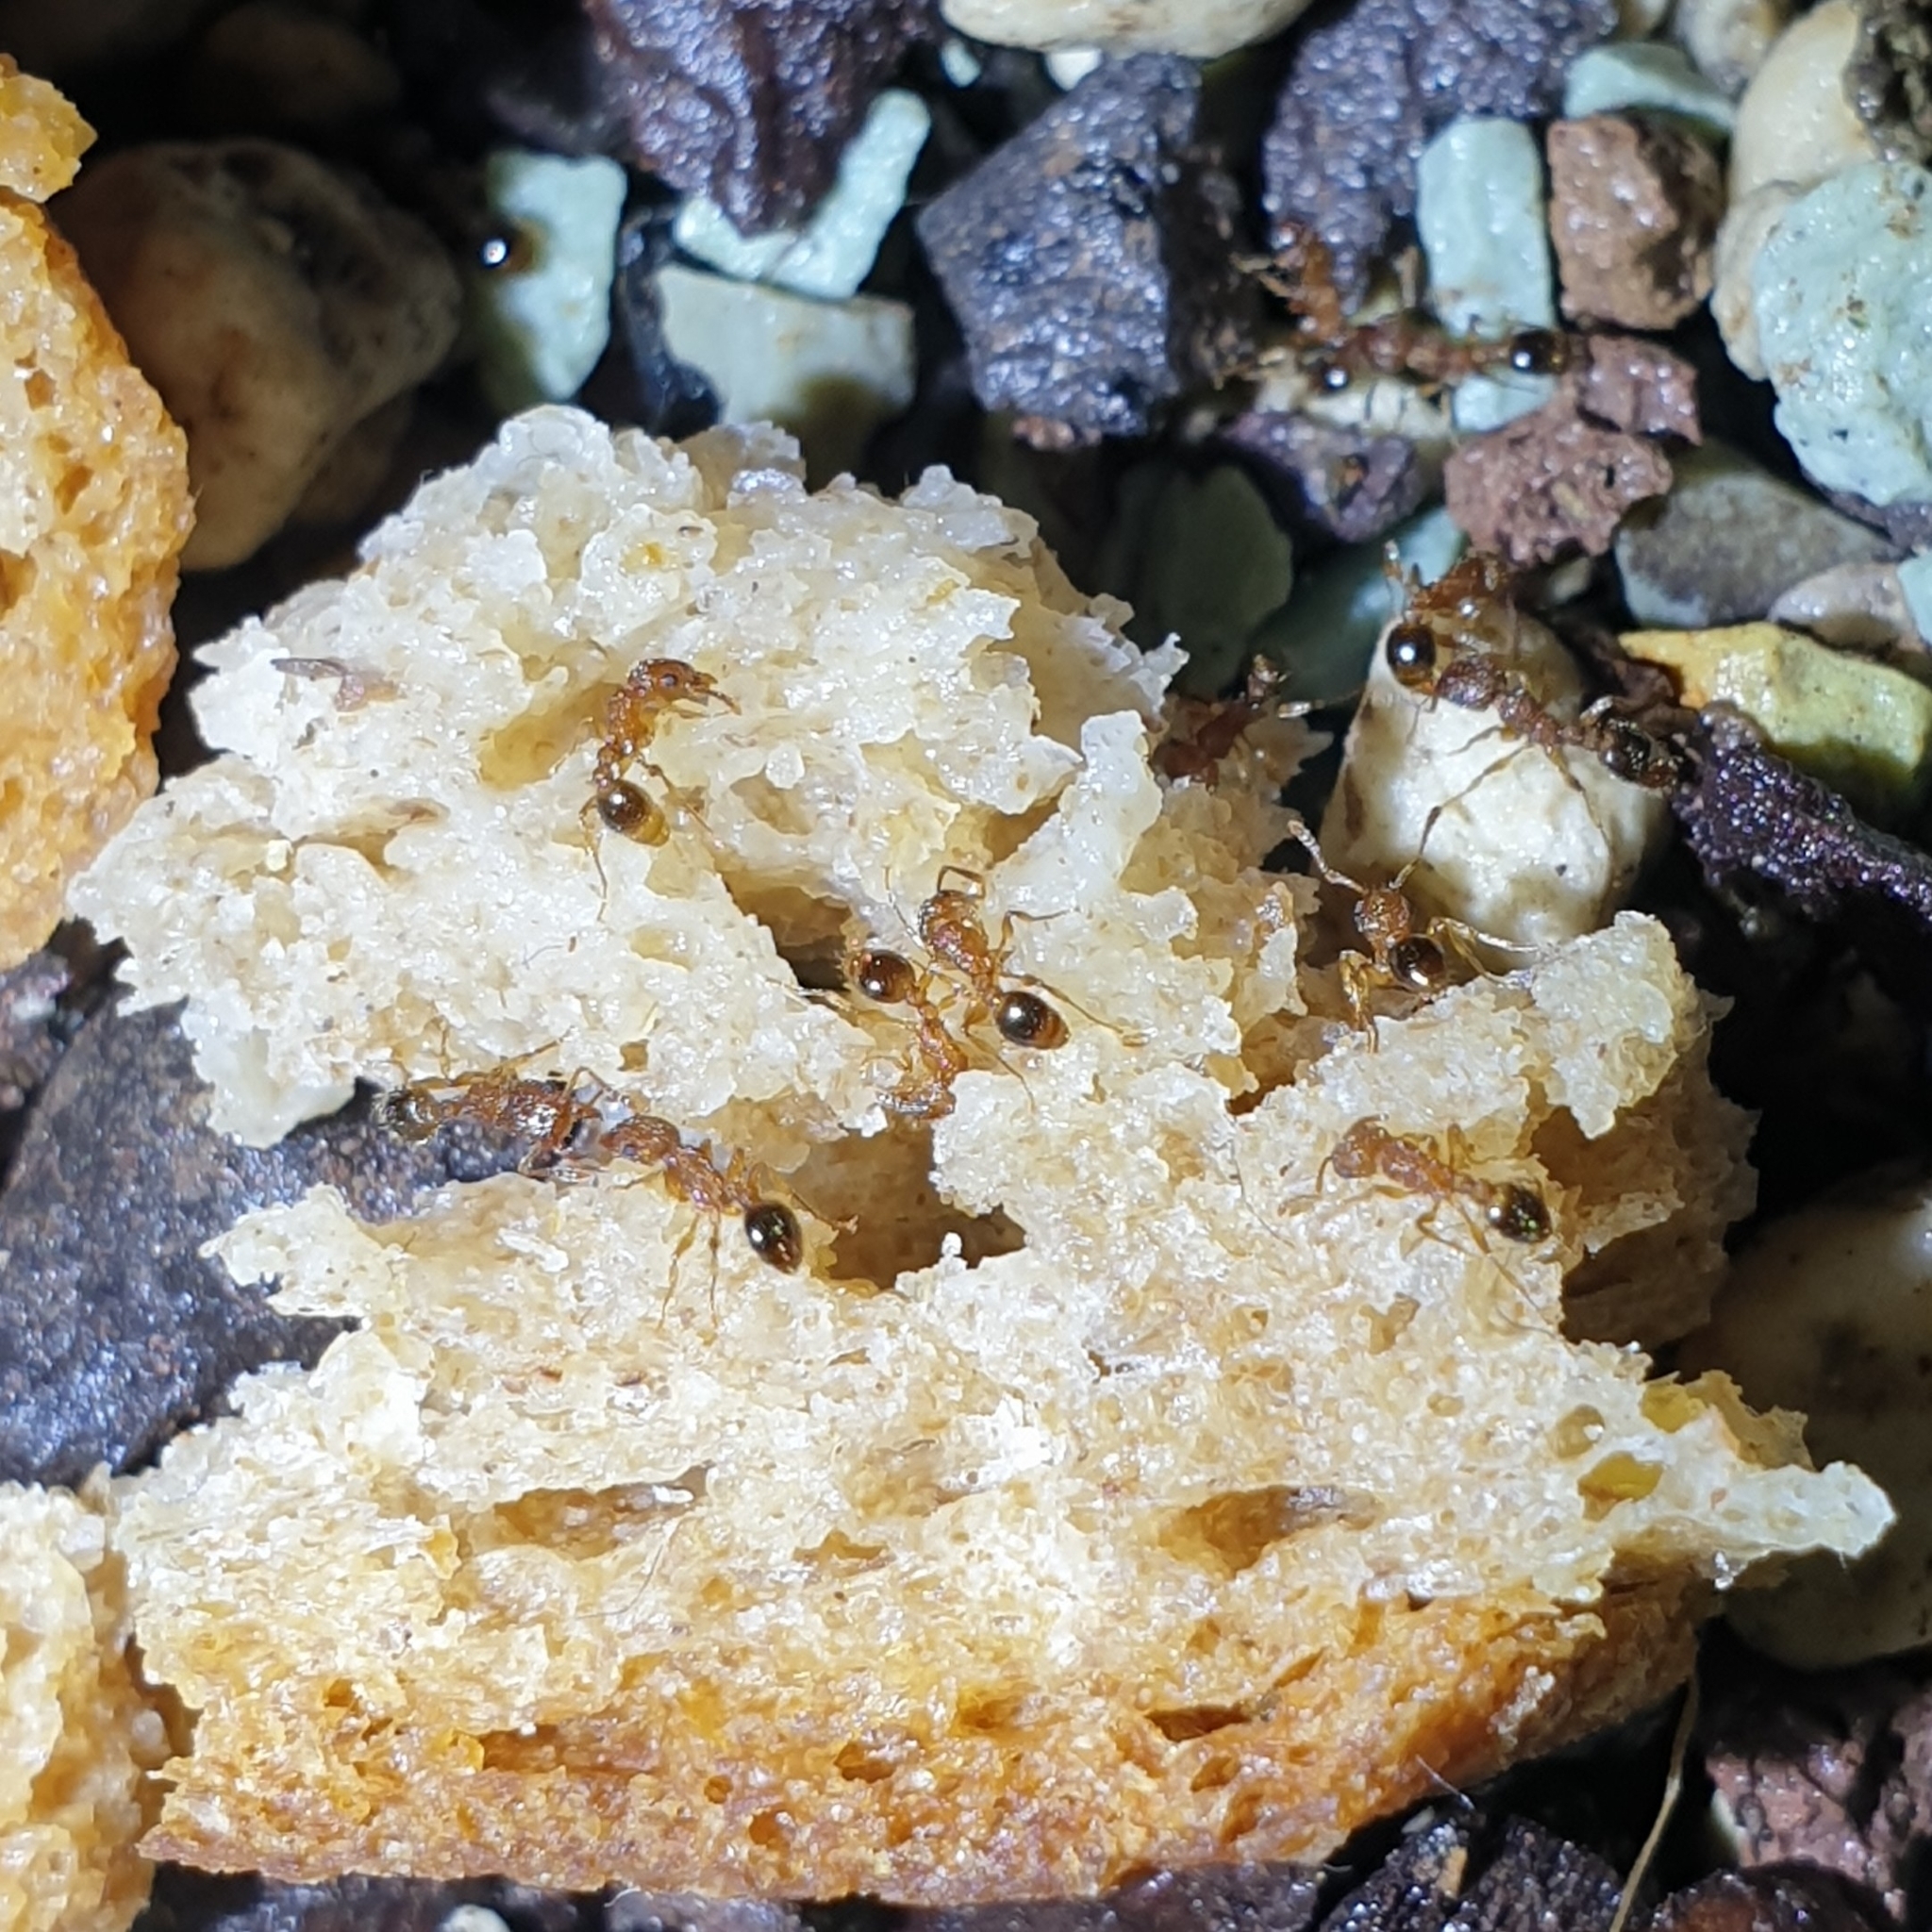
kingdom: Animalia
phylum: Arthropoda
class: Insecta
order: Hymenoptera
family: Formicidae
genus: Tetramorium
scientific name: Tetramorium bicarinatum
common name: Guinea ant
